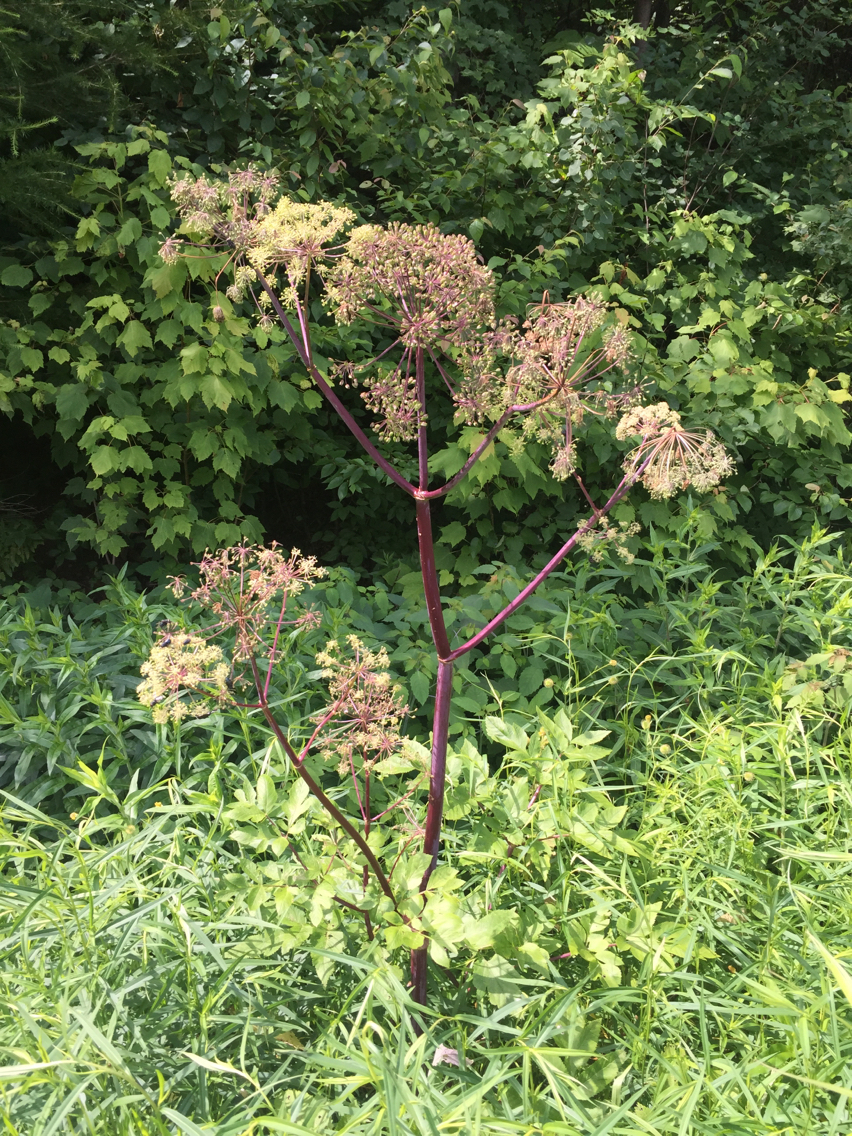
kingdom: Plantae
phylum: Tracheophyta
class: Magnoliopsida
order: Apiales
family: Apiaceae
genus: Angelica
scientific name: Angelica atropurpurea
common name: Great angelica
